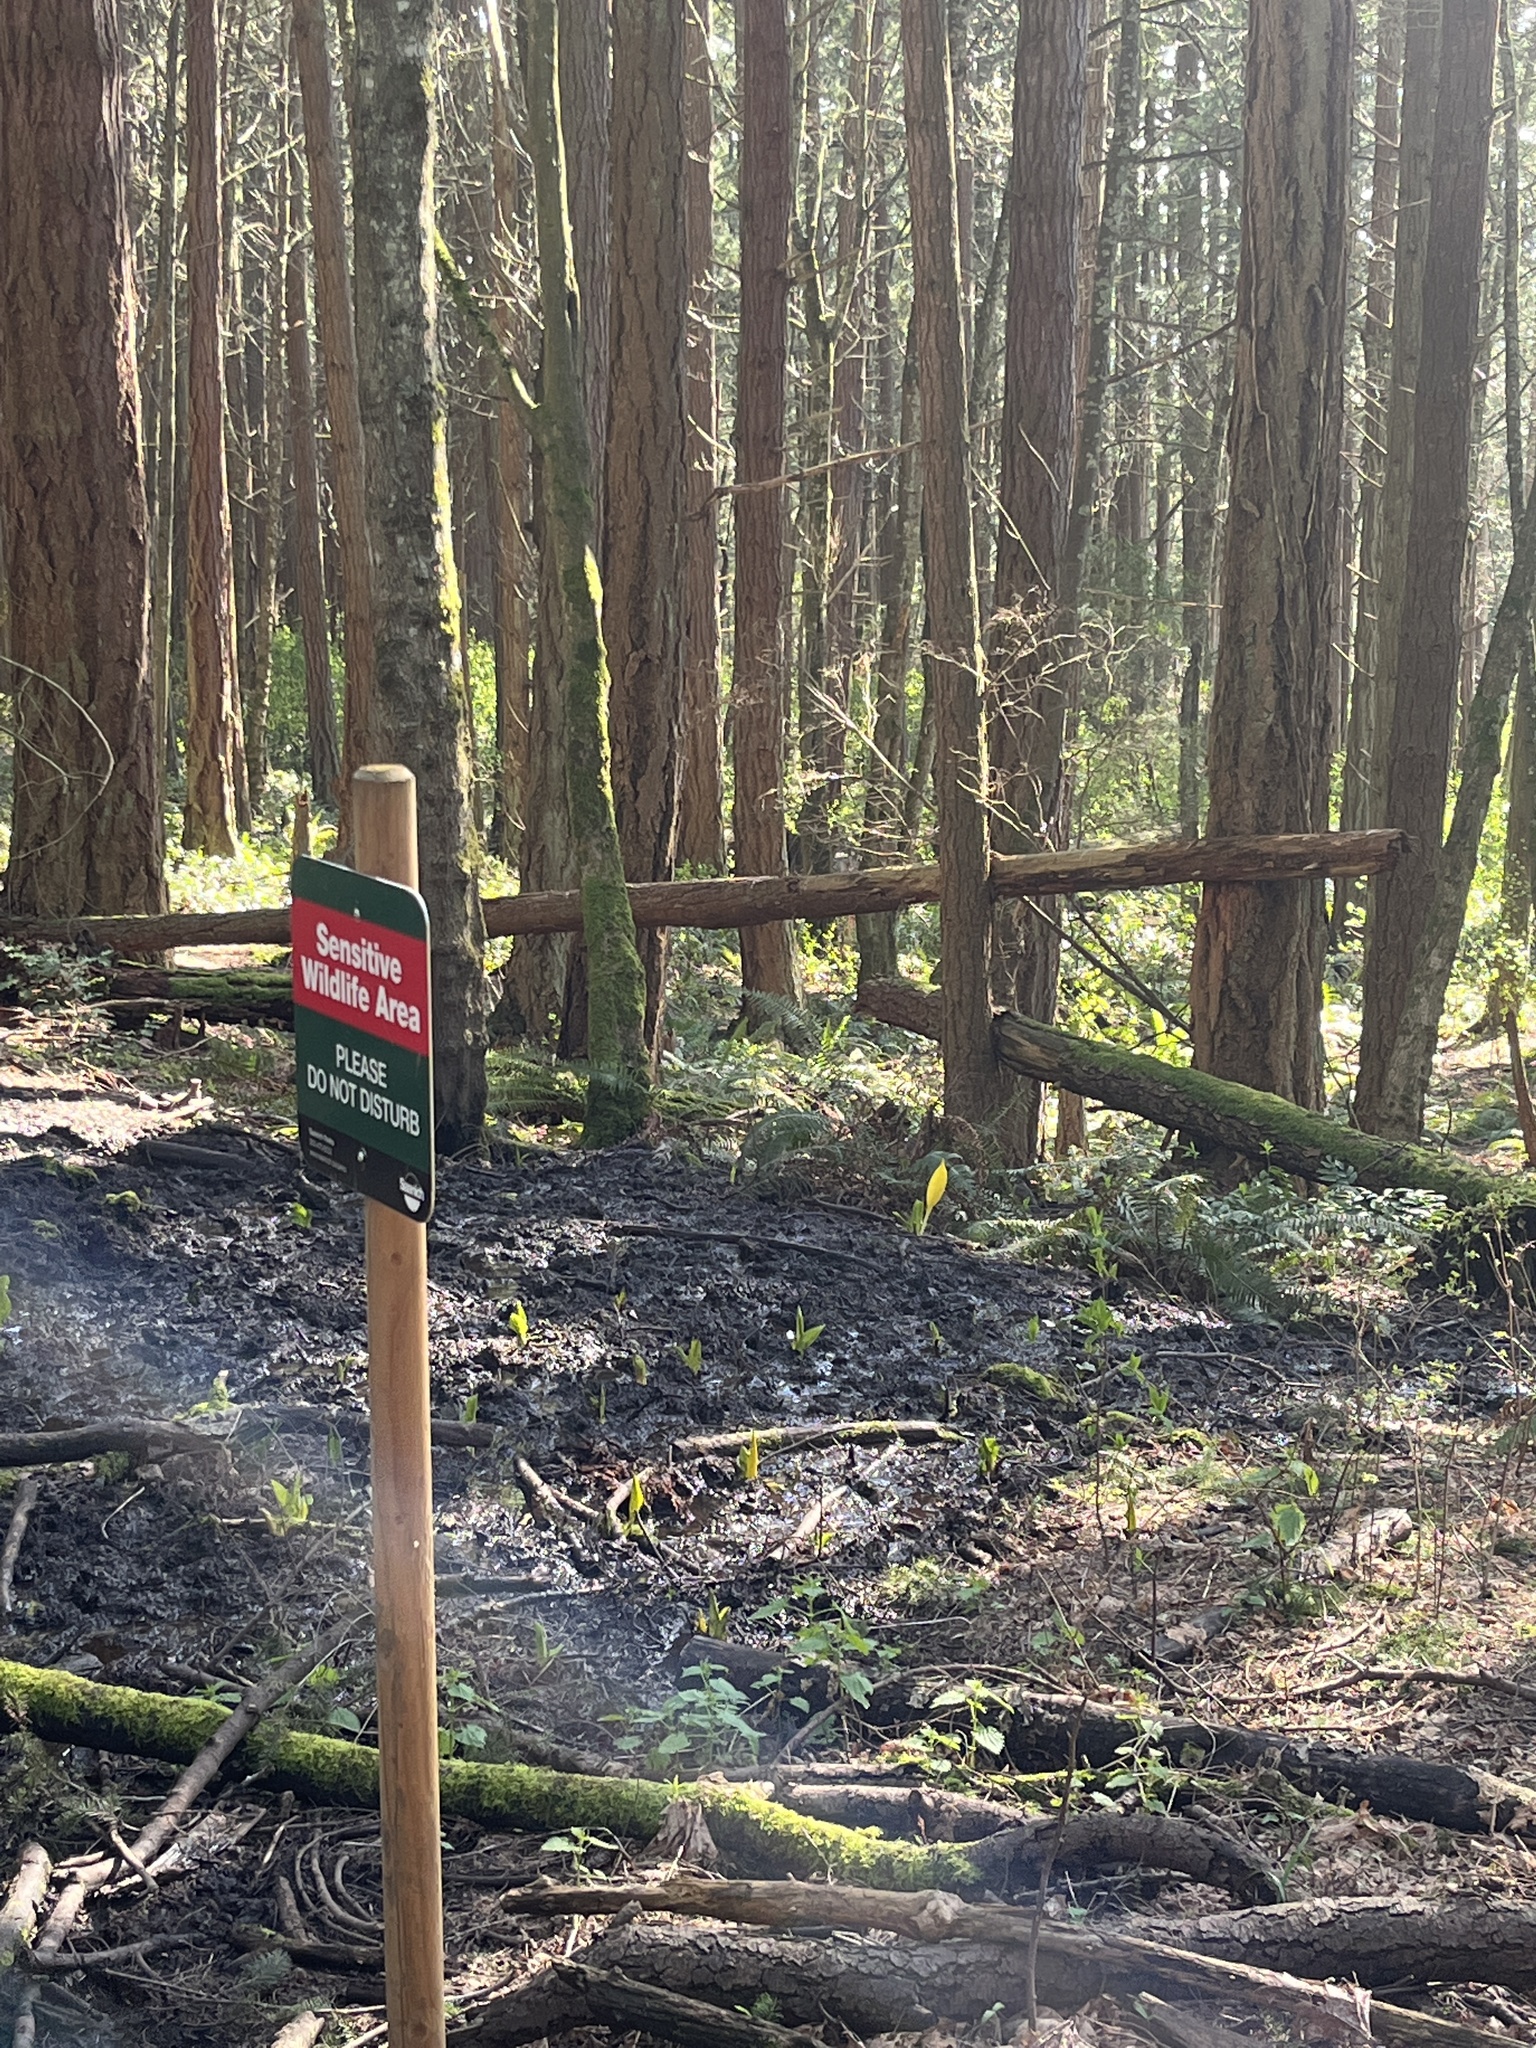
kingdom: Plantae
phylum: Tracheophyta
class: Liliopsida
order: Alismatales
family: Araceae
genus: Lysichiton
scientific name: Lysichiton americanus
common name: American skunk cabbage
